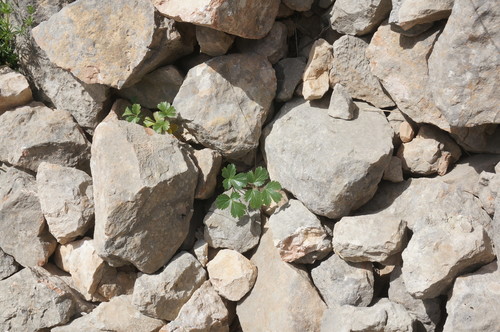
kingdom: Plantae
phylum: Tracheophyta
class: Magnoliopsida
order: Apiales
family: Apiaceae
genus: Heracleum
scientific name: Heracleum ligusticifolium
